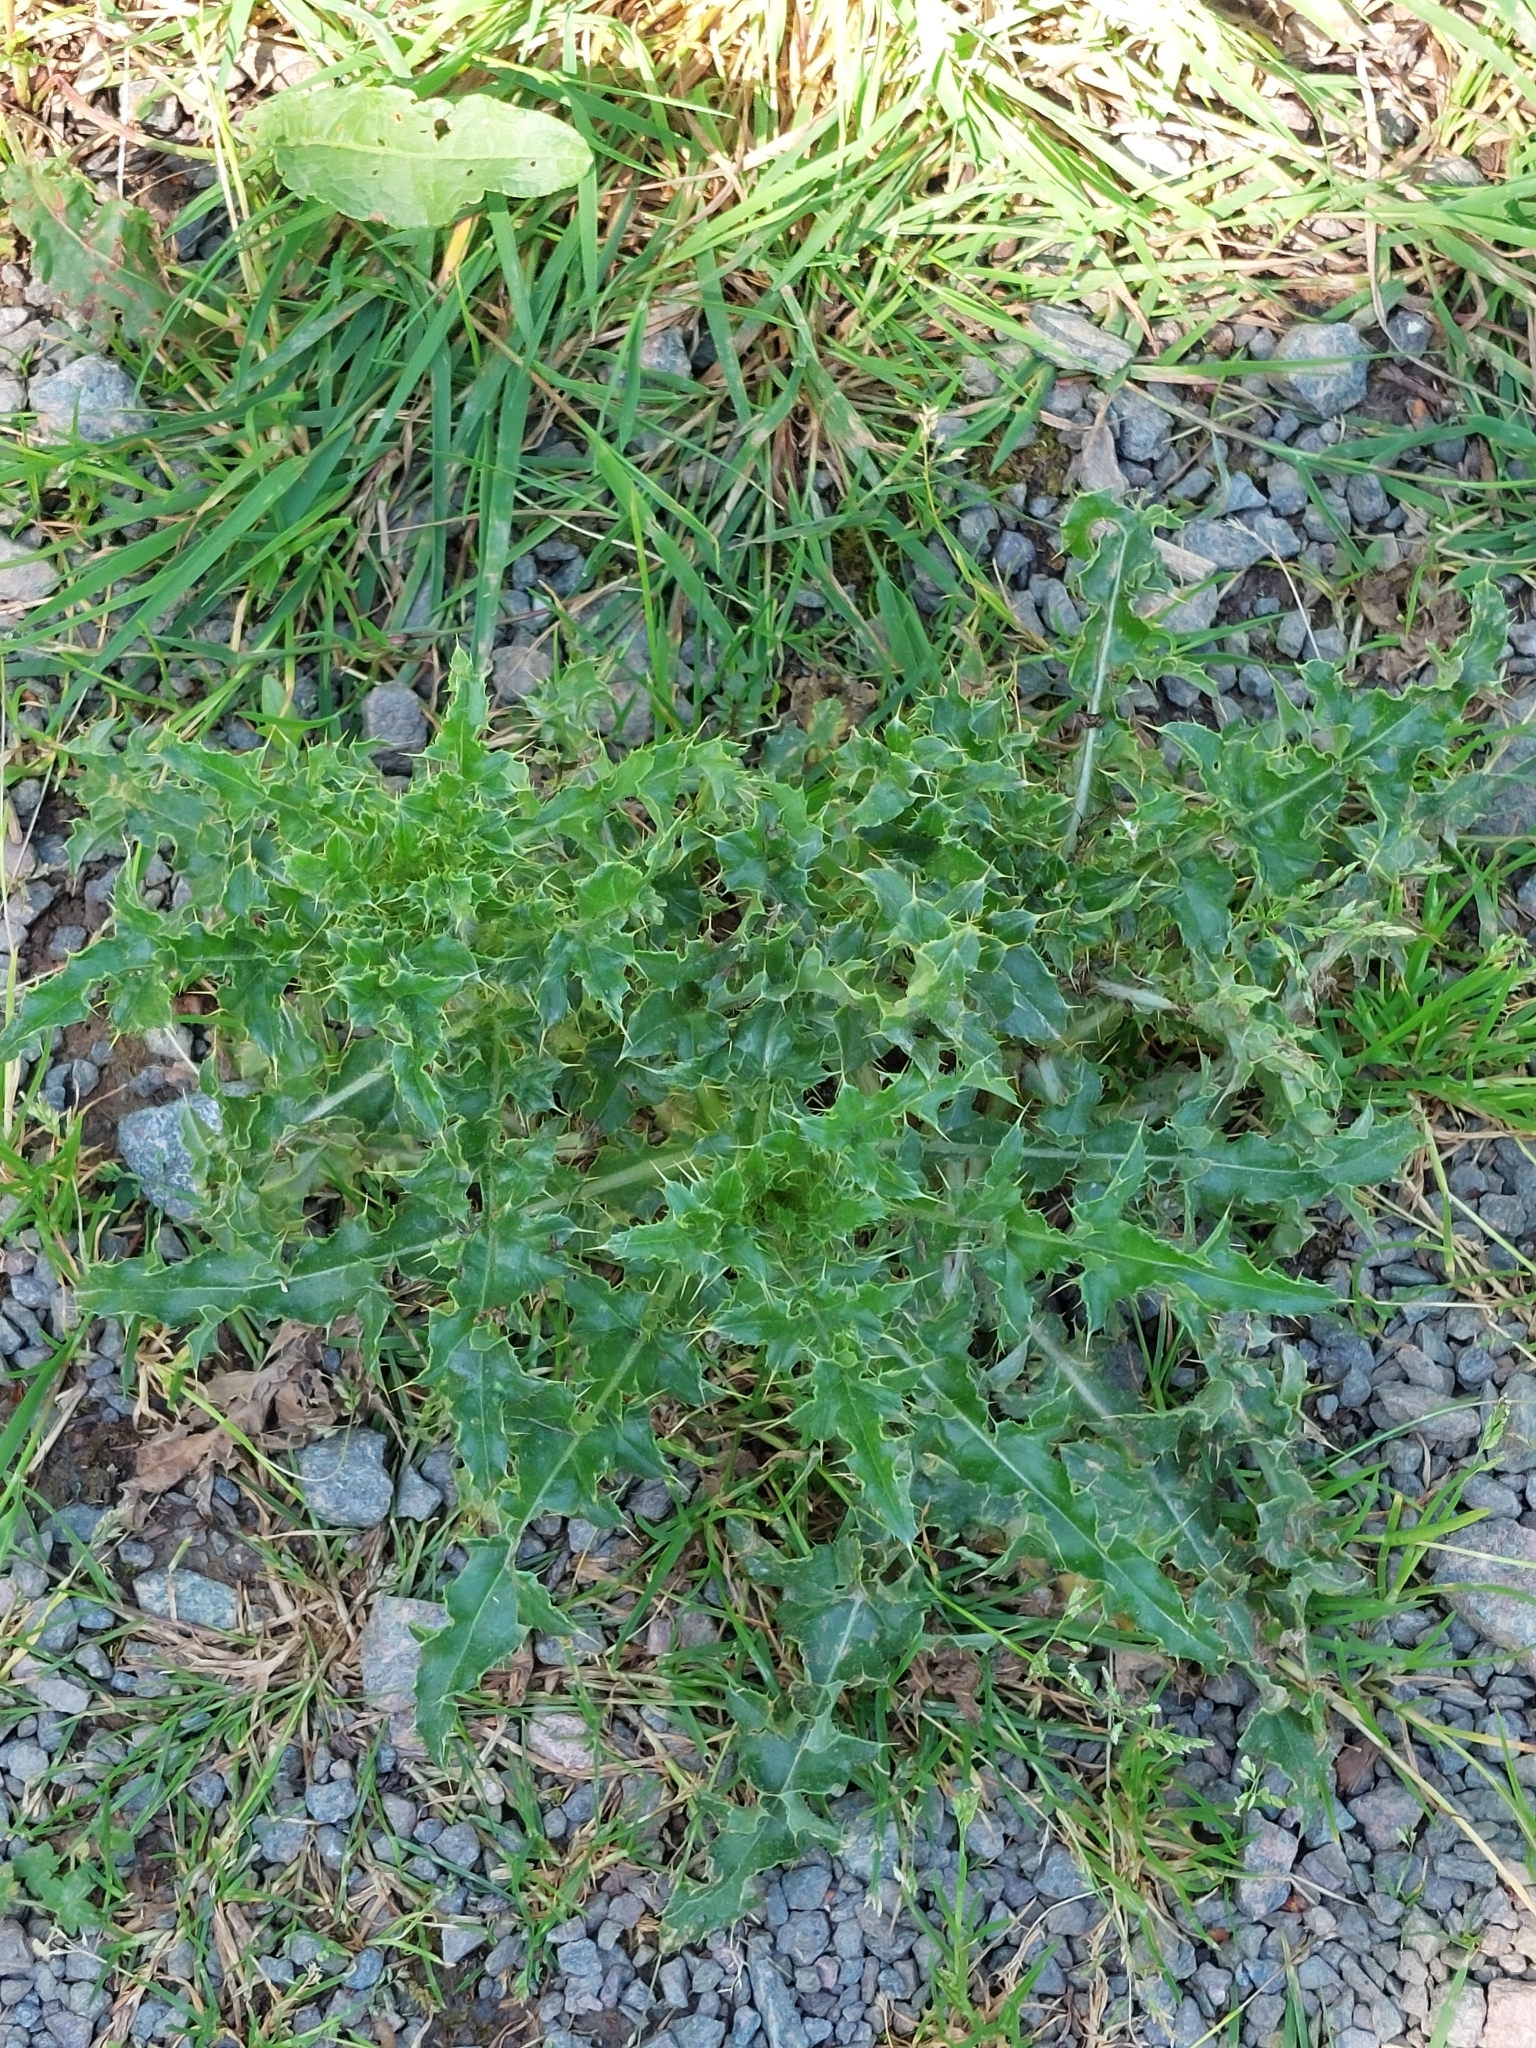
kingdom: Plantae
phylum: Tracheophyta
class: Magnoliopsida
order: Asterales
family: Asteraceae
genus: Cirsium
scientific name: Cirsium arvense
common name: Creeping thistle
